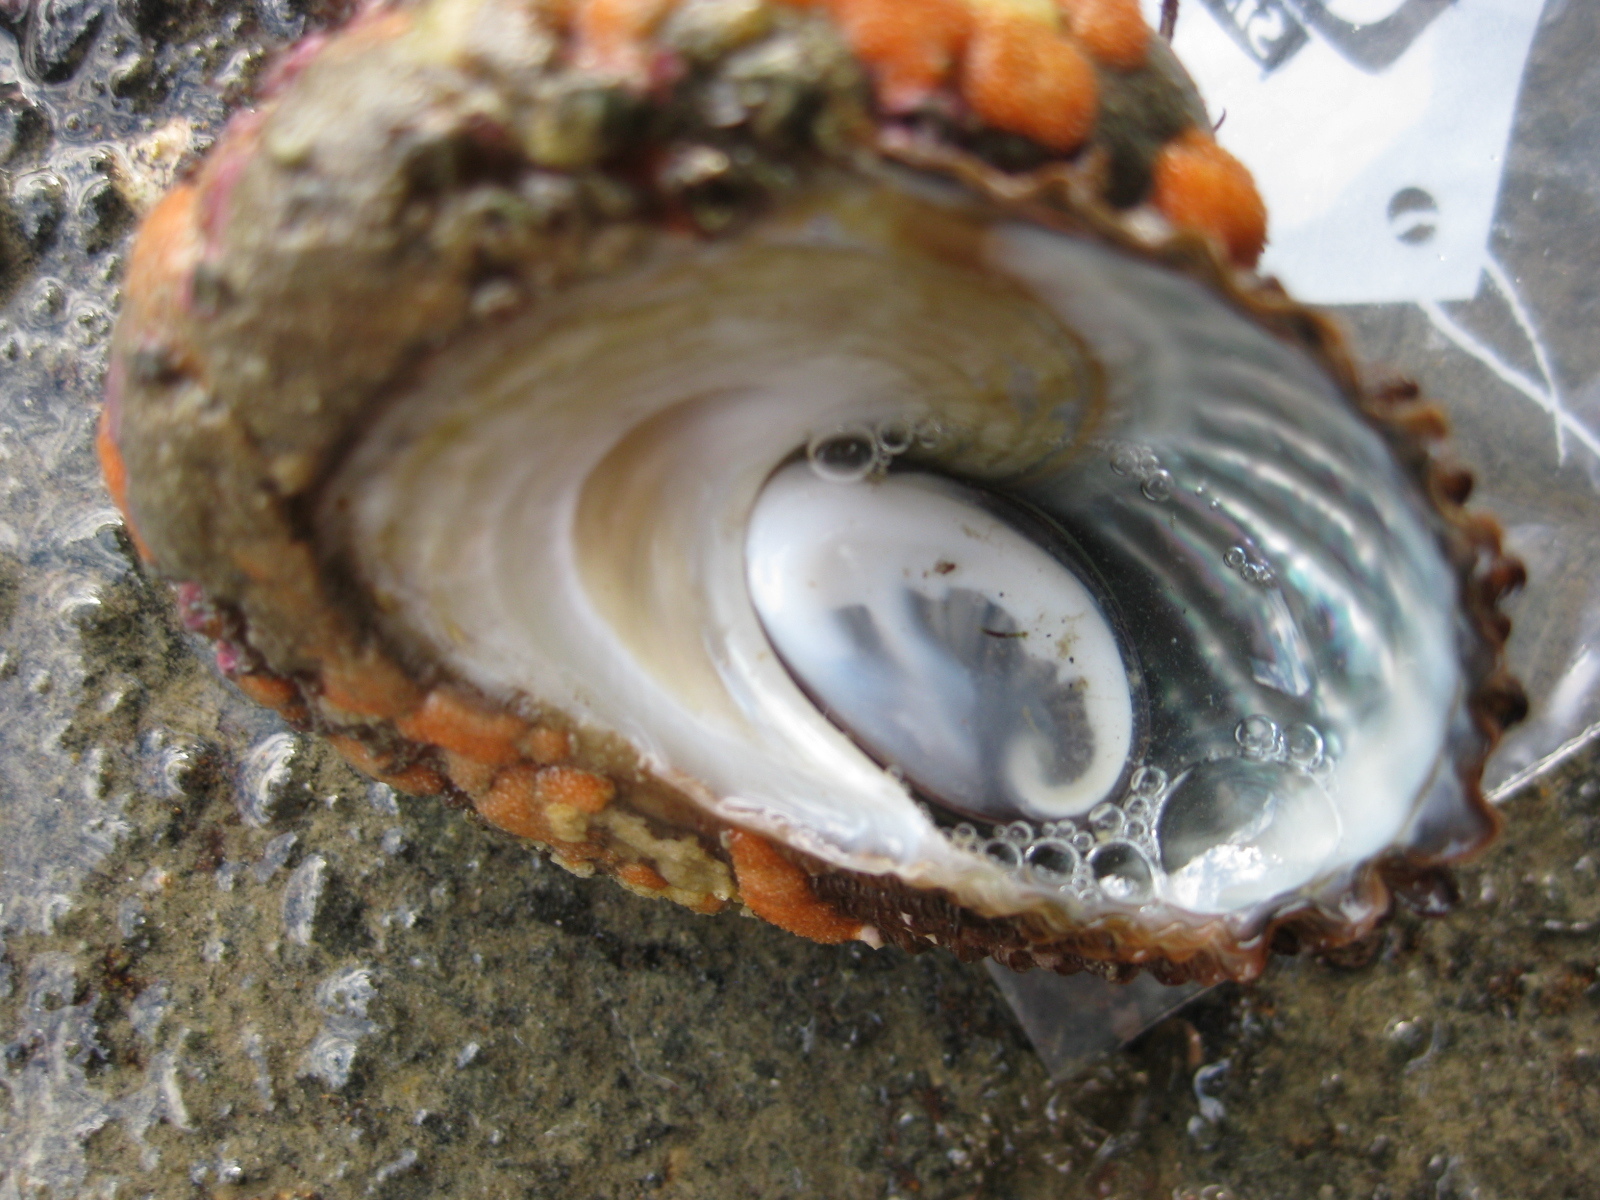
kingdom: Animalia
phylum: Mollusca
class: Gastropoda
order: Trochida
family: Turbinidae
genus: Cookia
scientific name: Cookia sulcata
